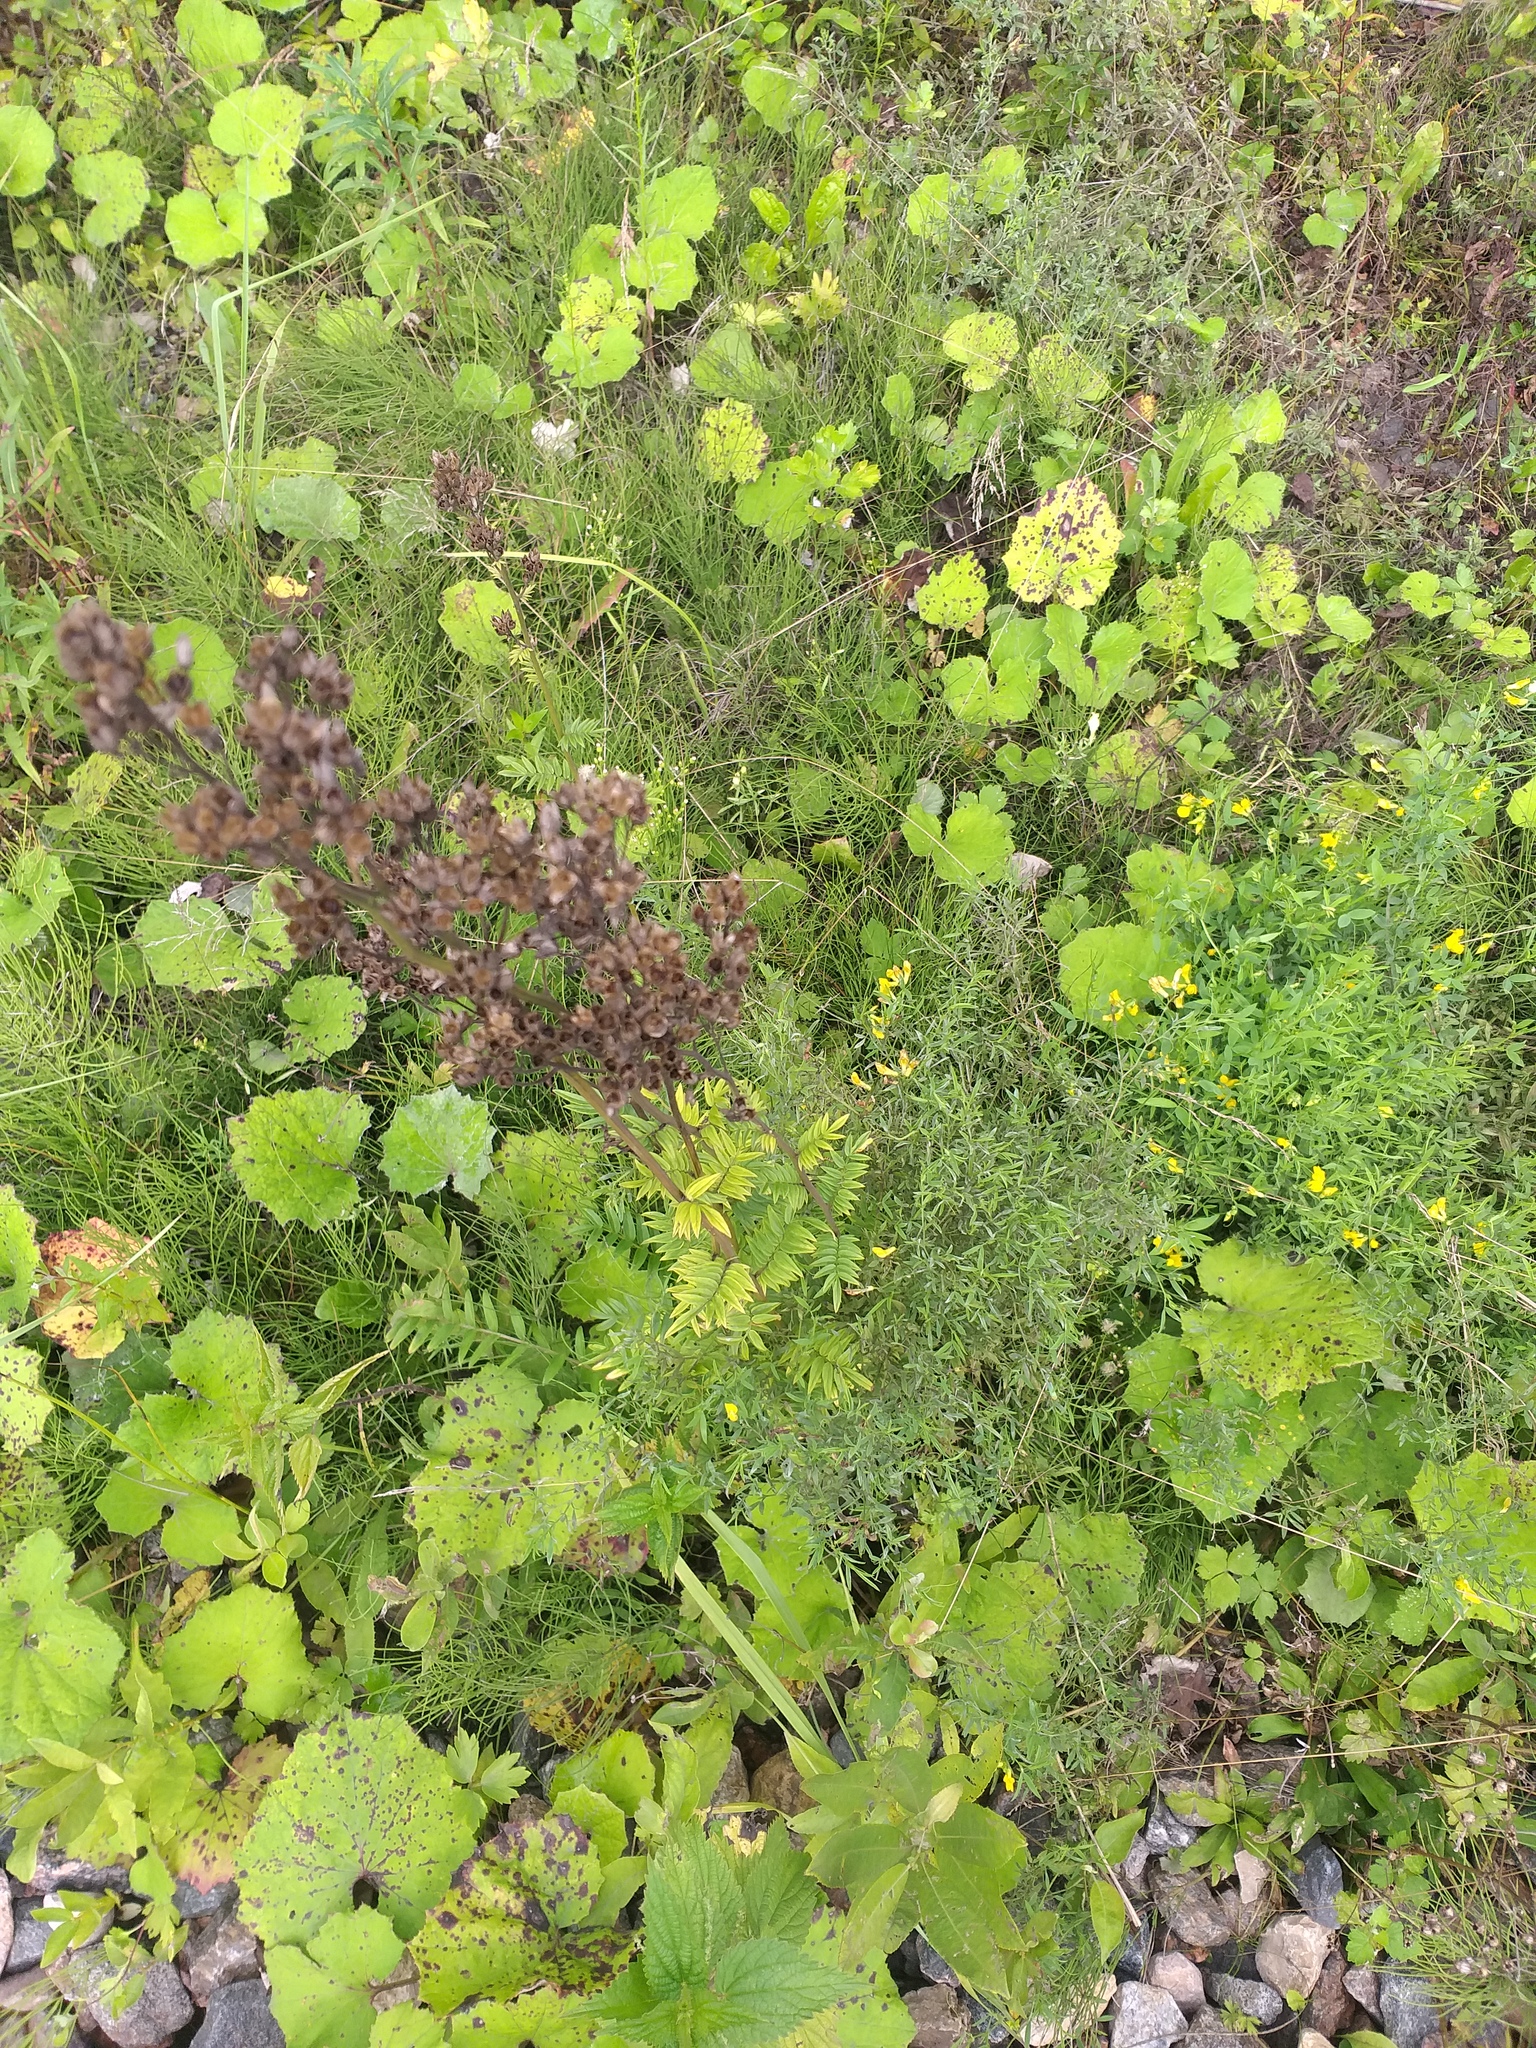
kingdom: Plantae
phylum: Tracheophyta
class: Magnoliopsida
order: Ericales
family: Polemoniaceae
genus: Polemonium
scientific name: Polemonium caeruleum
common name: Jacob's-ladder
